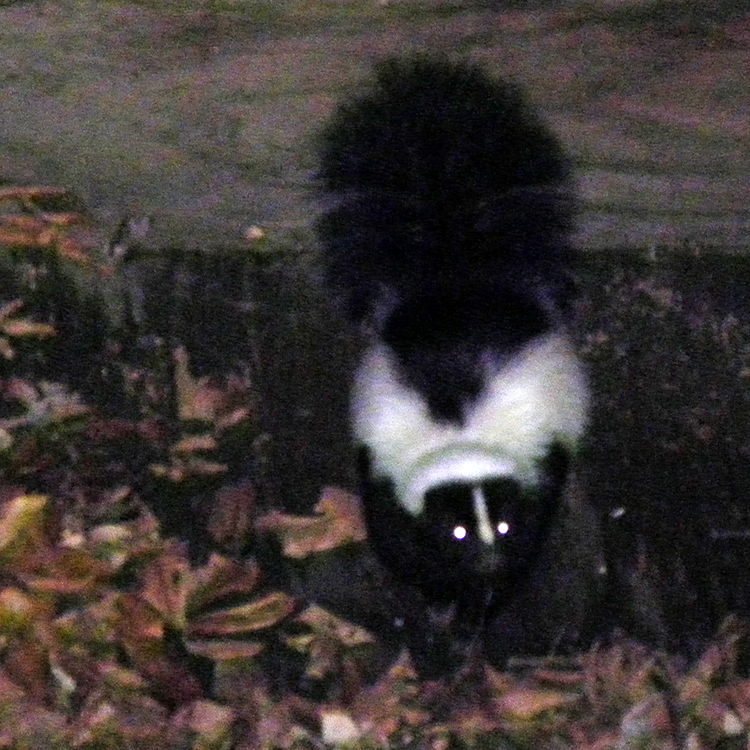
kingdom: Animalia
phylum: Chordata
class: Mammalia
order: Carnivora
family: Mephitidae
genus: Mephitis
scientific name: Mephitis mephitis
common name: Striped skunk
